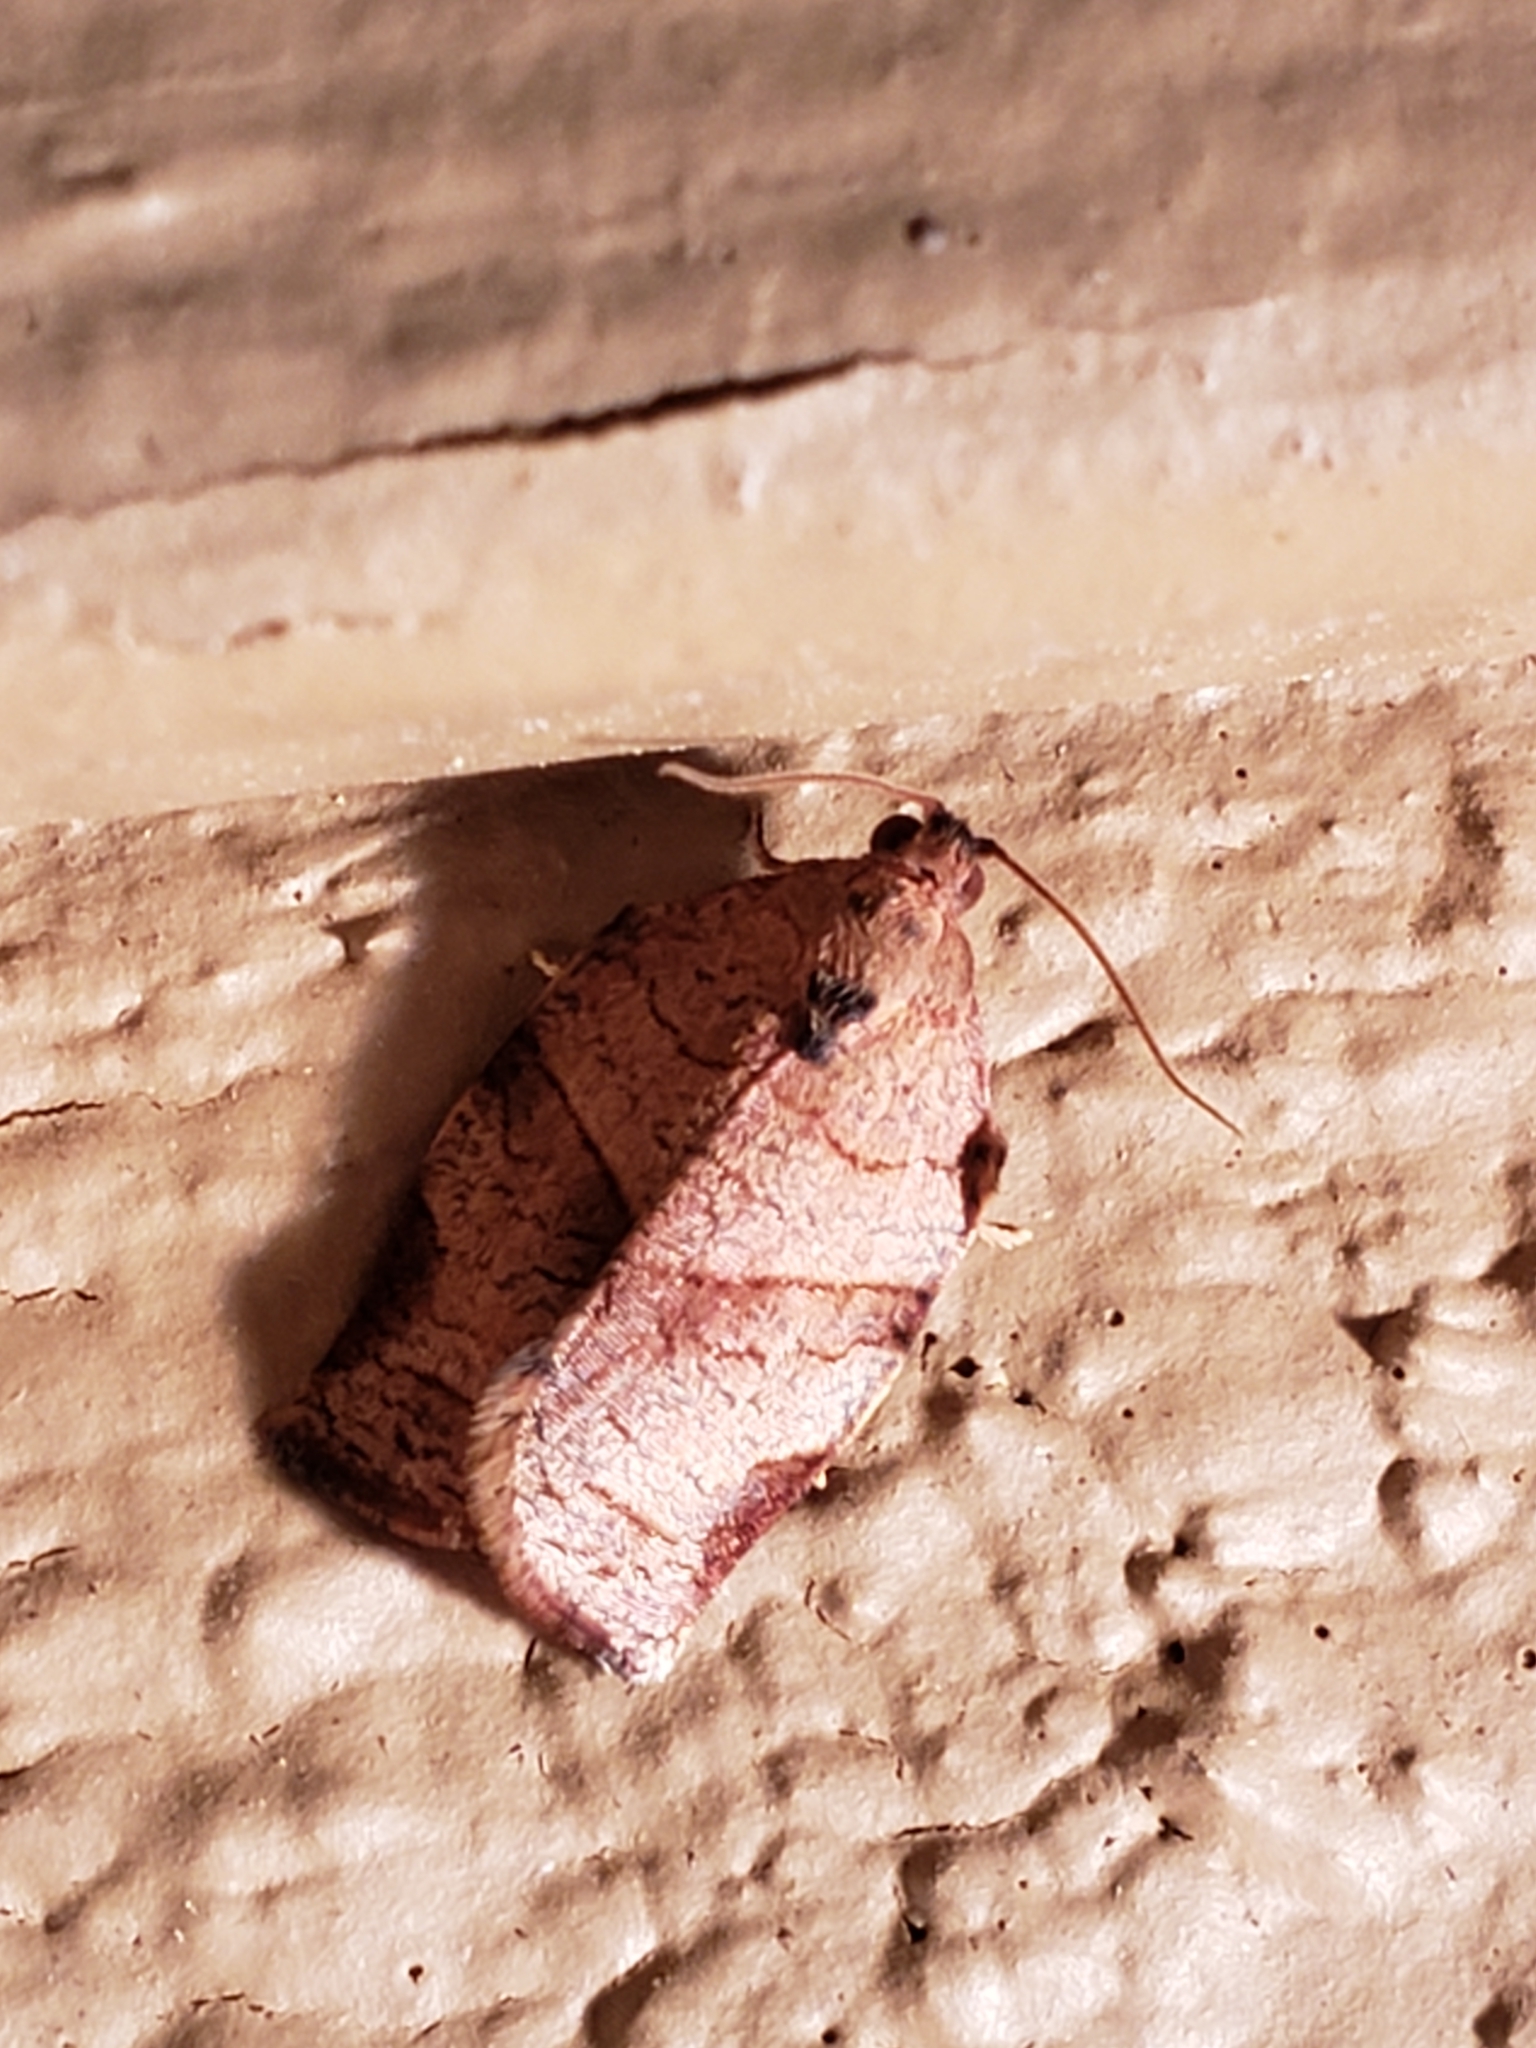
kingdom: Animalia
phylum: Arthropoda
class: Insecta
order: Lepidoptera
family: Tortricidae
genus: Choristoneura
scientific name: Choristoneura rosaceana
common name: Oblique-banded leafroller moth
